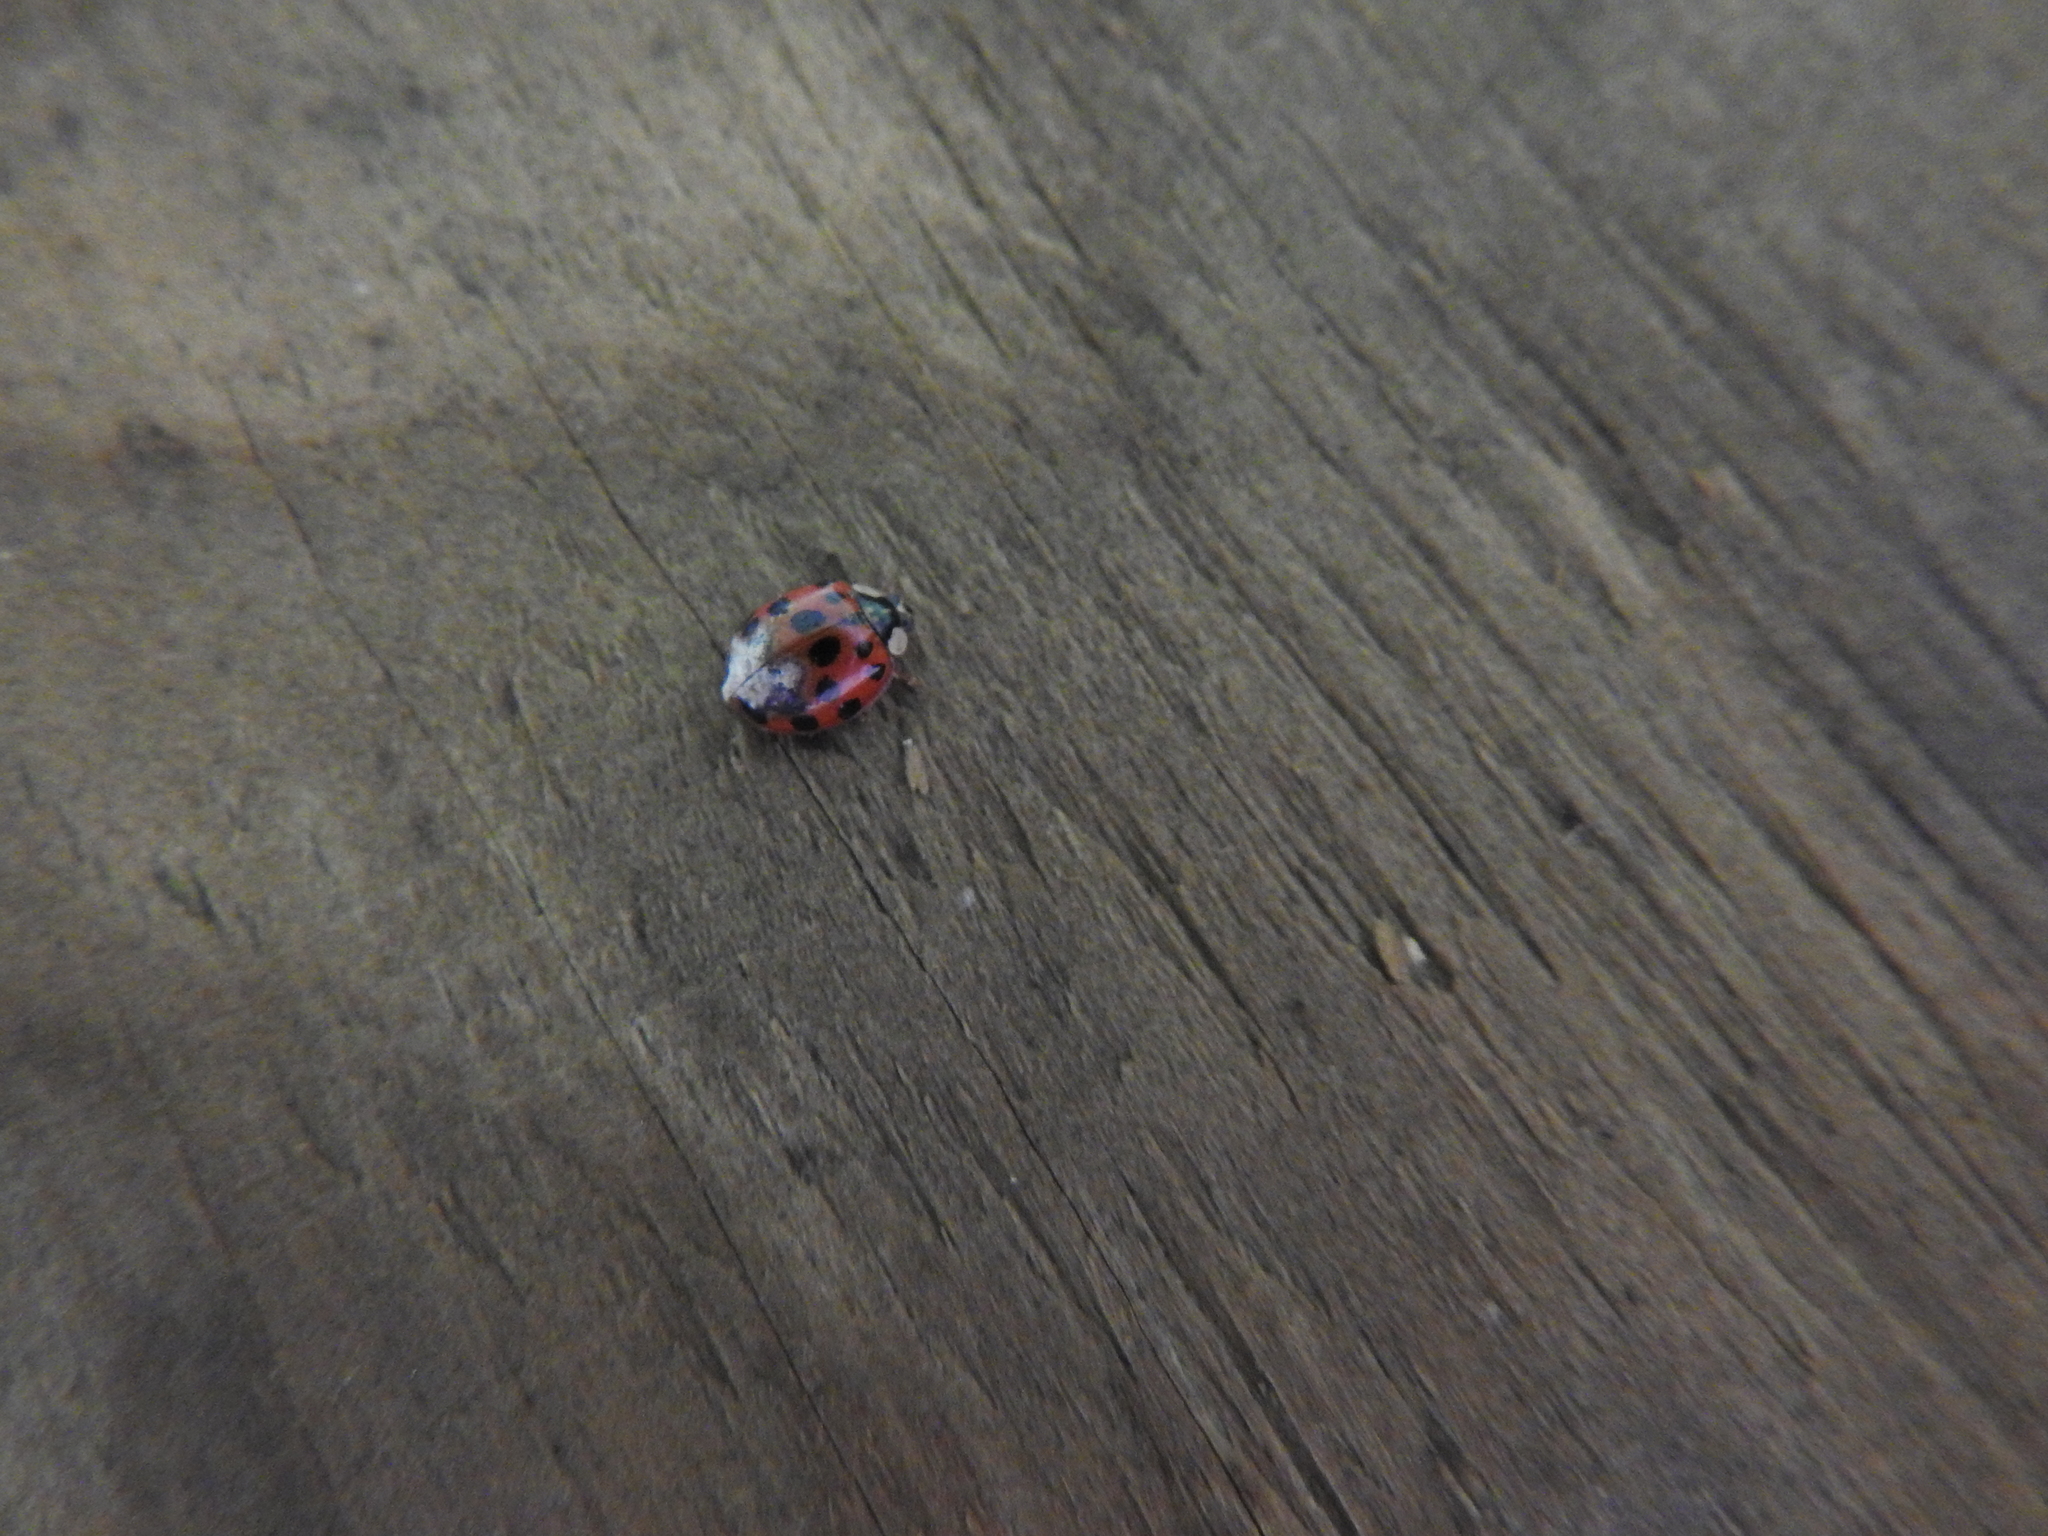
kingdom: Animalia
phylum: Arthropoda
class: Insecta
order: Coleoptera
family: Coccinellidae
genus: Harmonia
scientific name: Harmonia axyridis
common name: Harlequin ladybird
